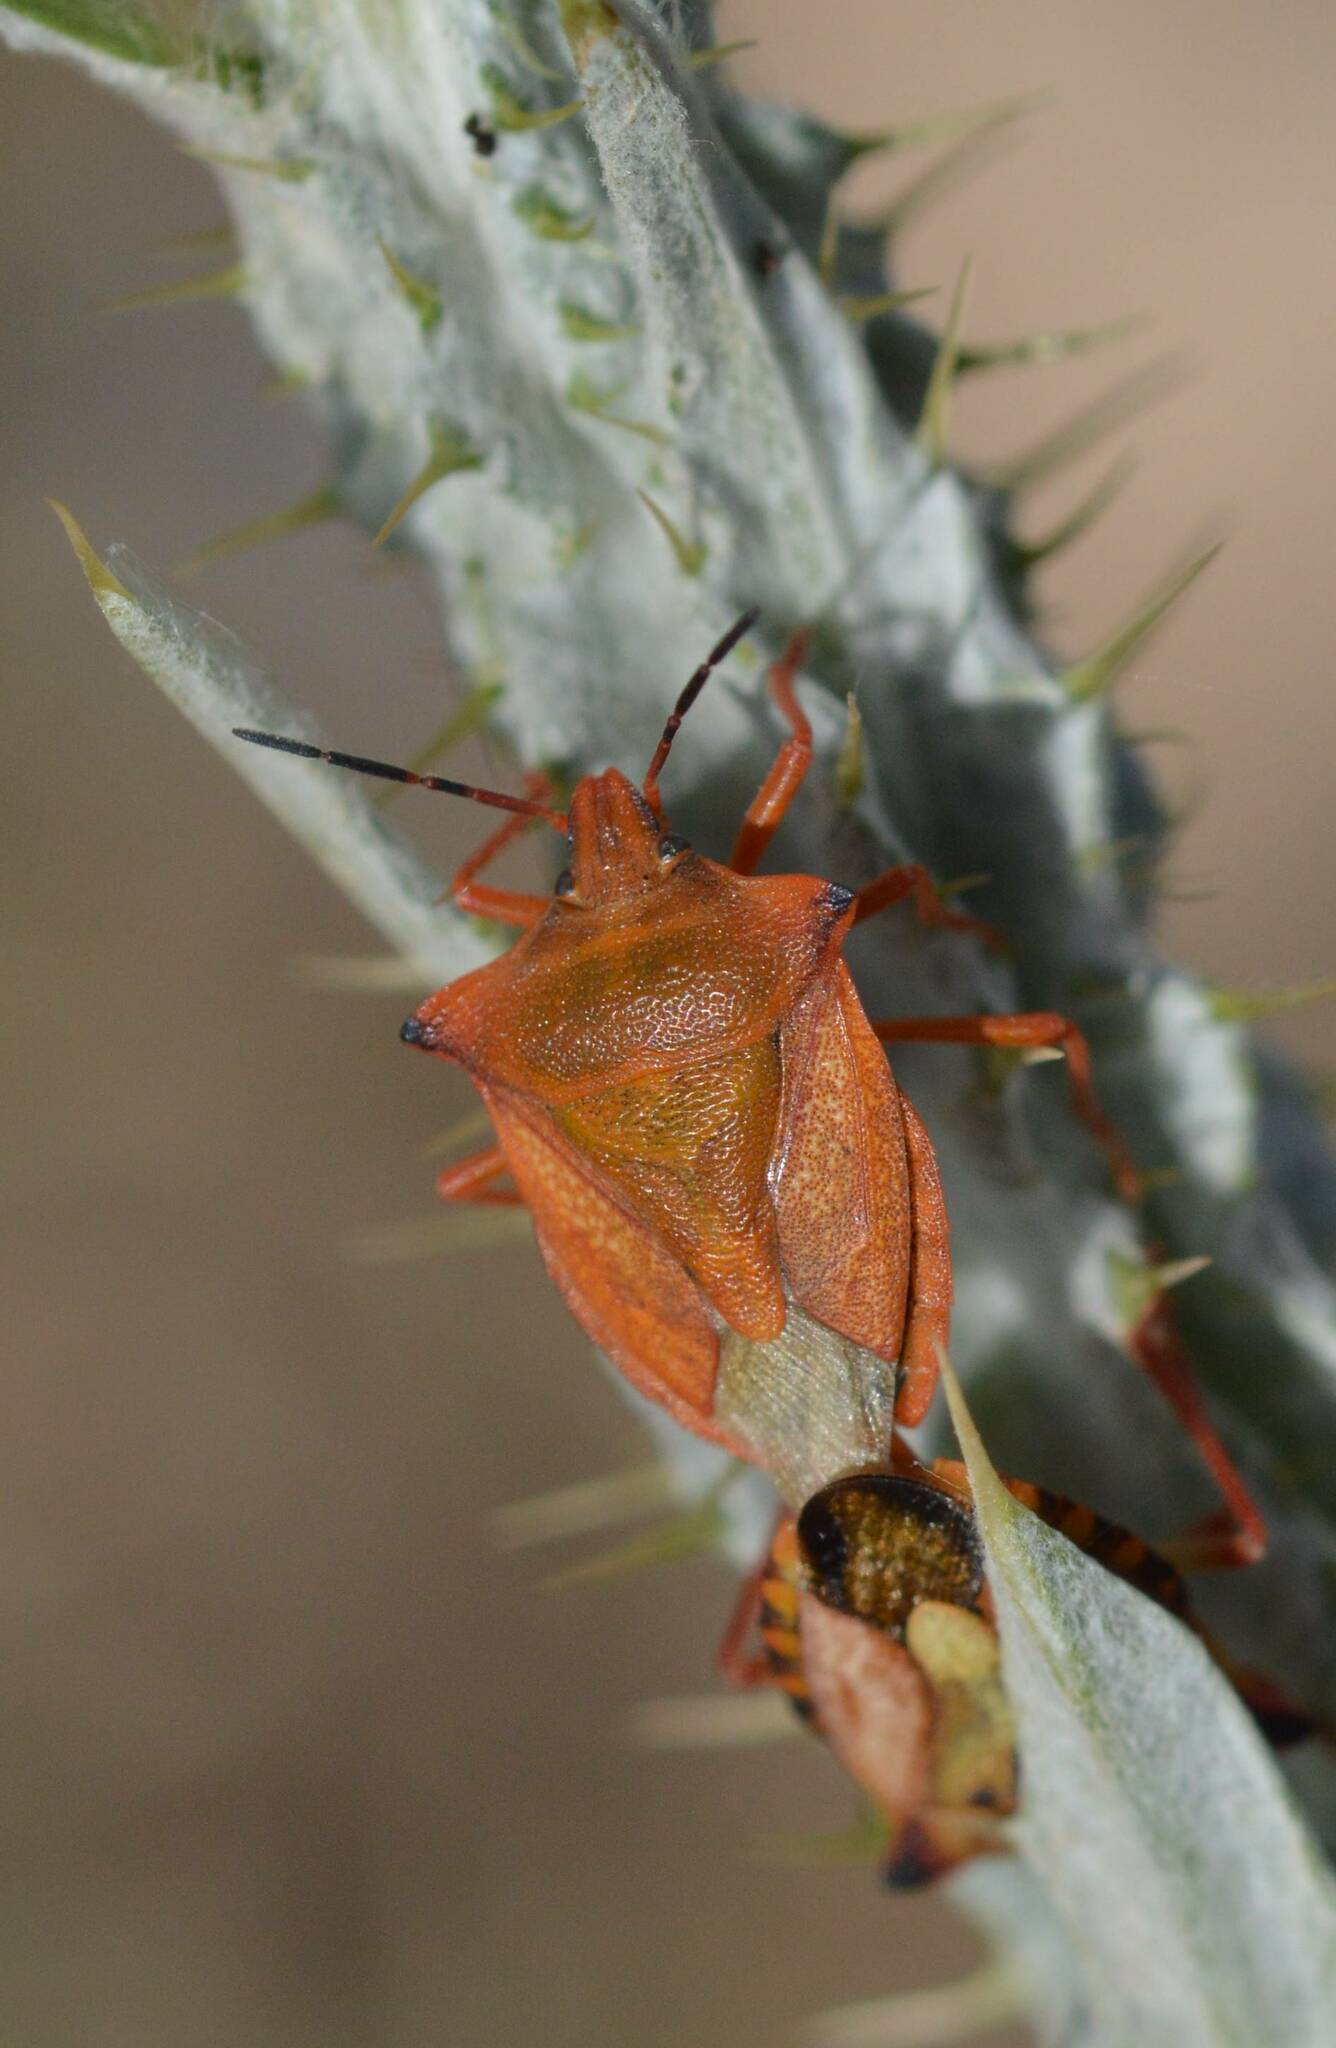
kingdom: Animalia
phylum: Arthropoda
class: Insecta
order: Hemiptera
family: Pentatomidae
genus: Carpocoris
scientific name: Carpocoris mediterraneus
